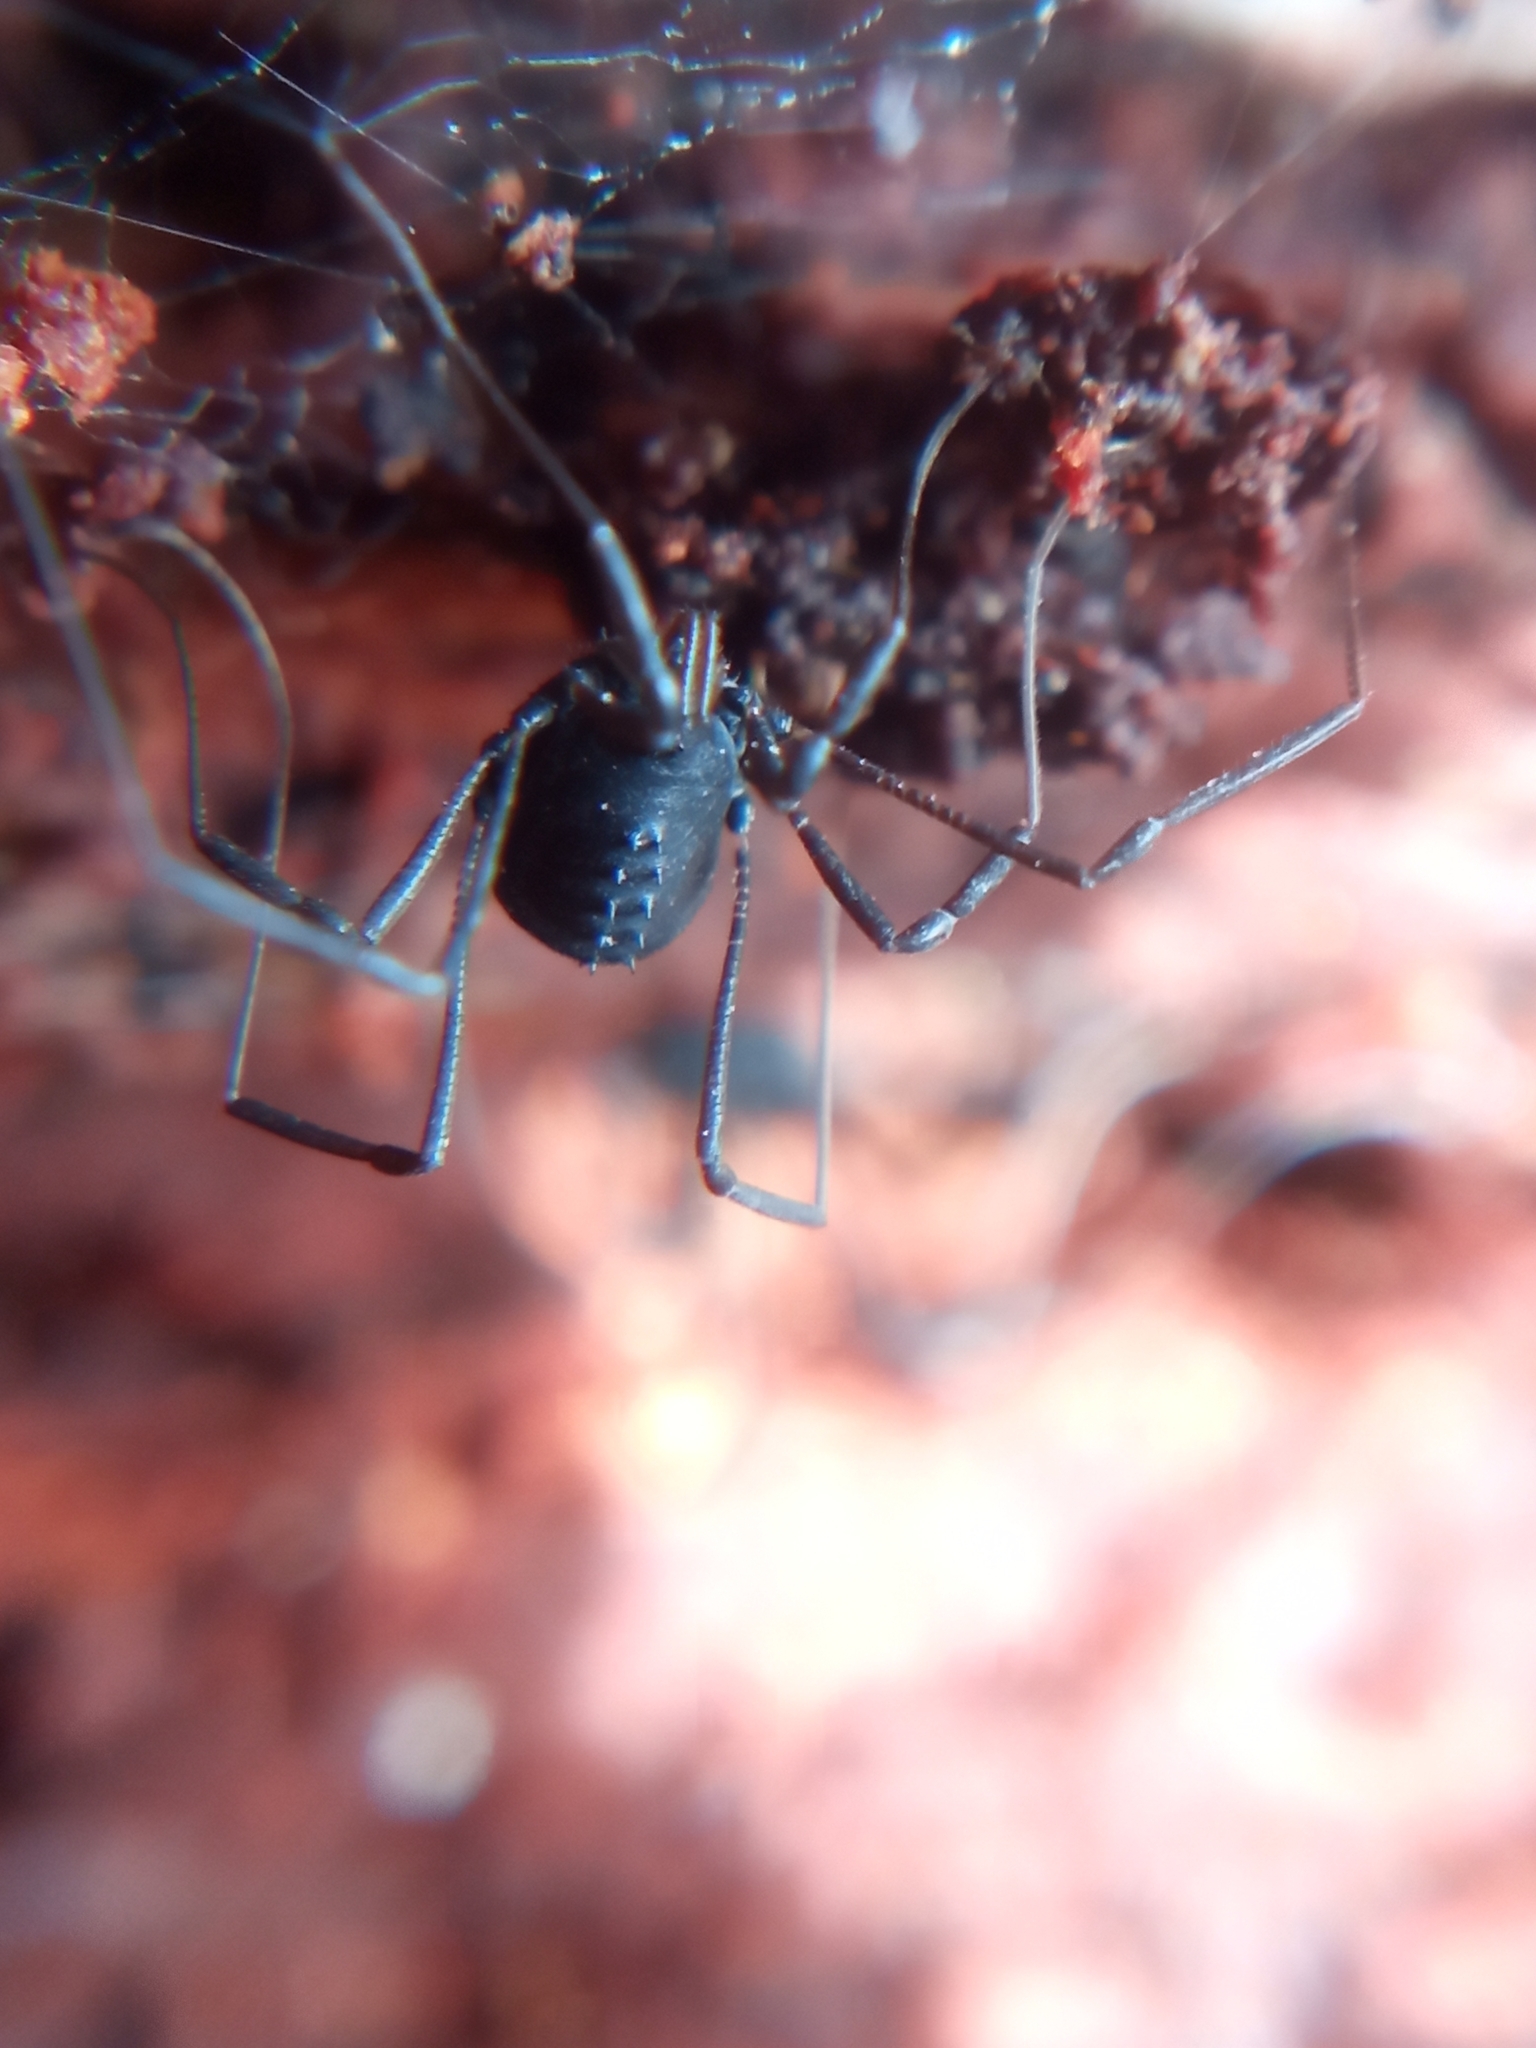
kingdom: Animalia
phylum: Arthropoda
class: Arachnida
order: Opiliones
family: Nemastomatidae
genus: Histricostoma
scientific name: Histricostoma dentipalpe
